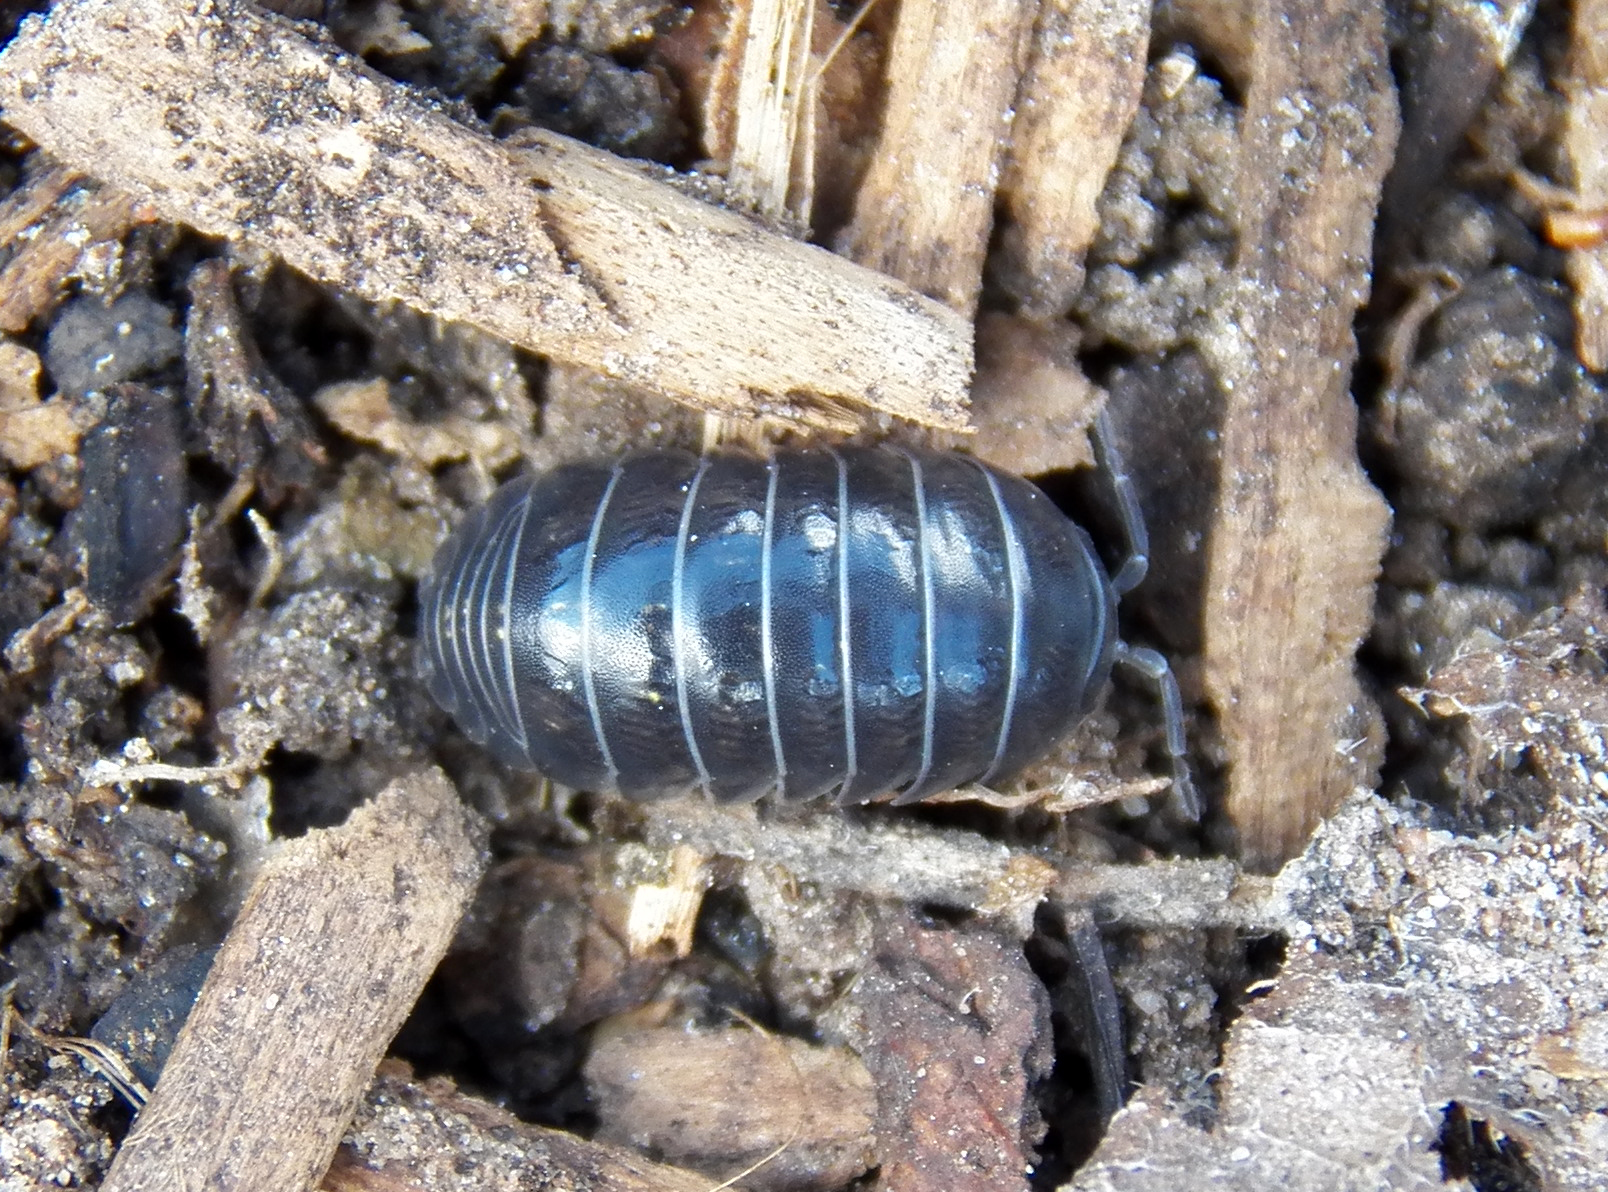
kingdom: Animalia
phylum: Arthropoda
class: Malacostraca
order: Isopoda
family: Armadillidiidae
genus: Armadillidium
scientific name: Armadillidium vulgare
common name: Common pill woodlouse
